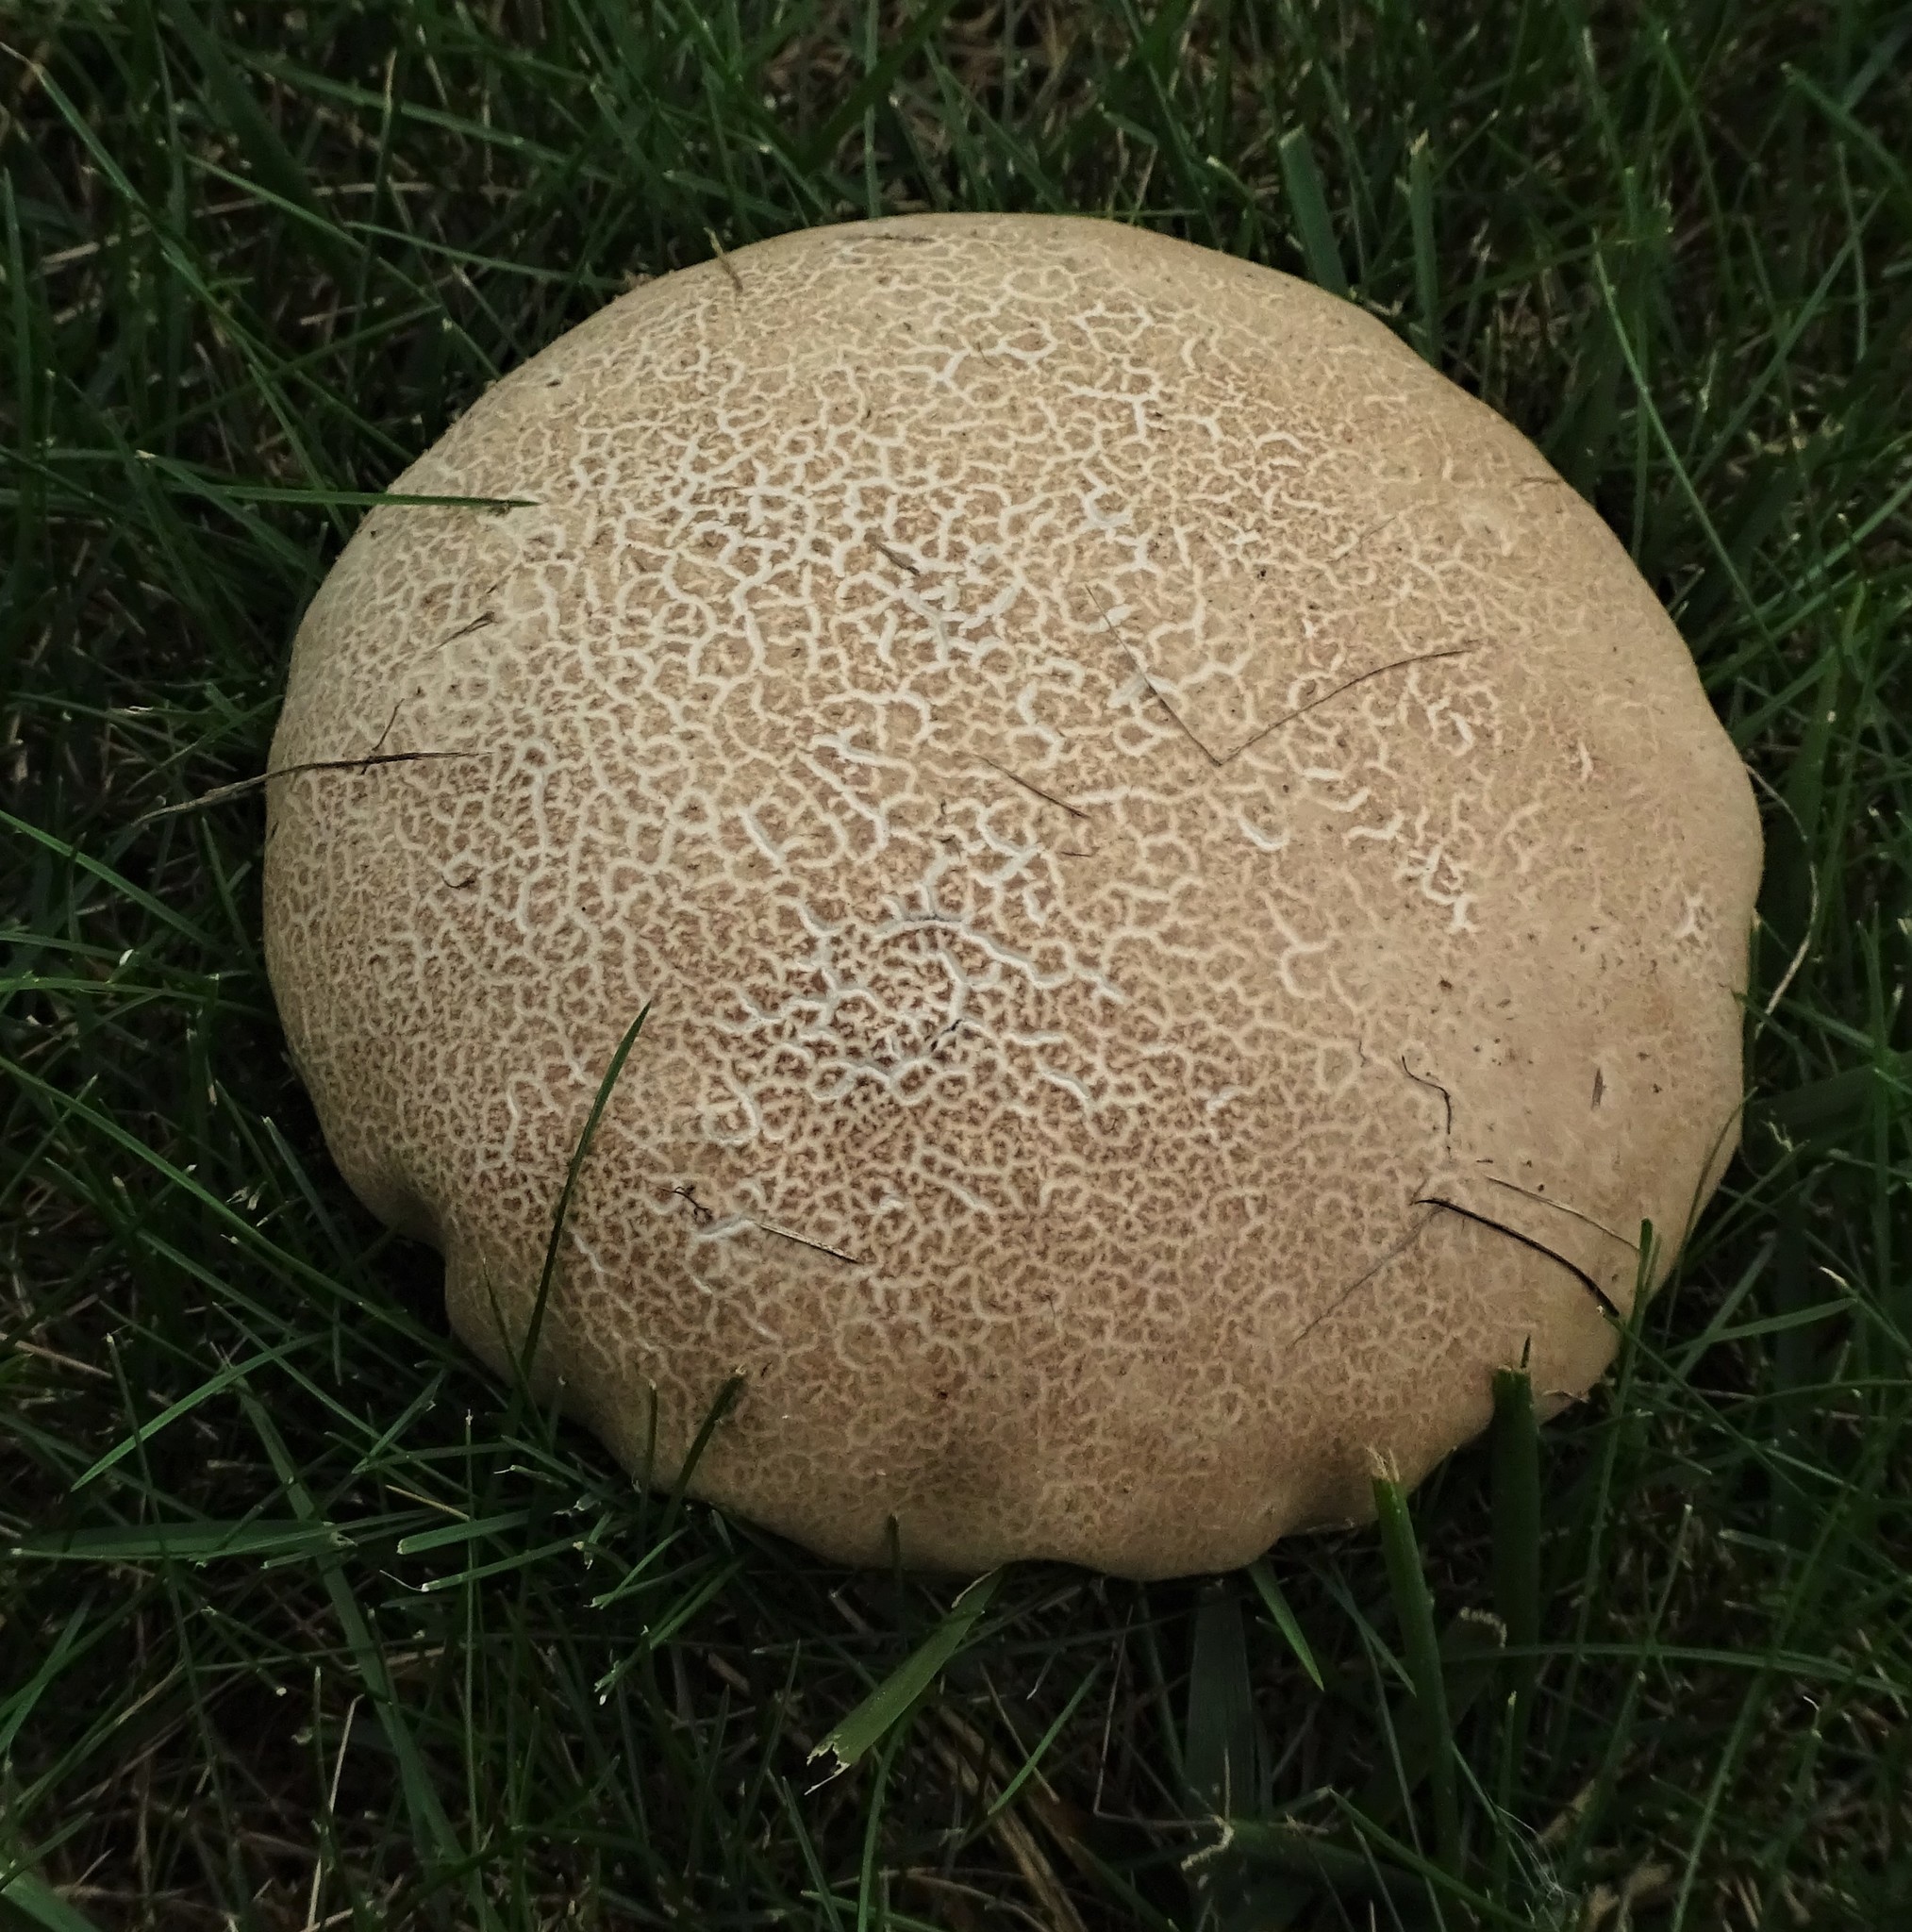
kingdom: Fungi
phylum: Basidiomycota
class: Agaricomycetes
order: Agaricales
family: Lycoperdaceae
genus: Calvatia
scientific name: Calvatia cyathiformis
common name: Purple-spored puffball
